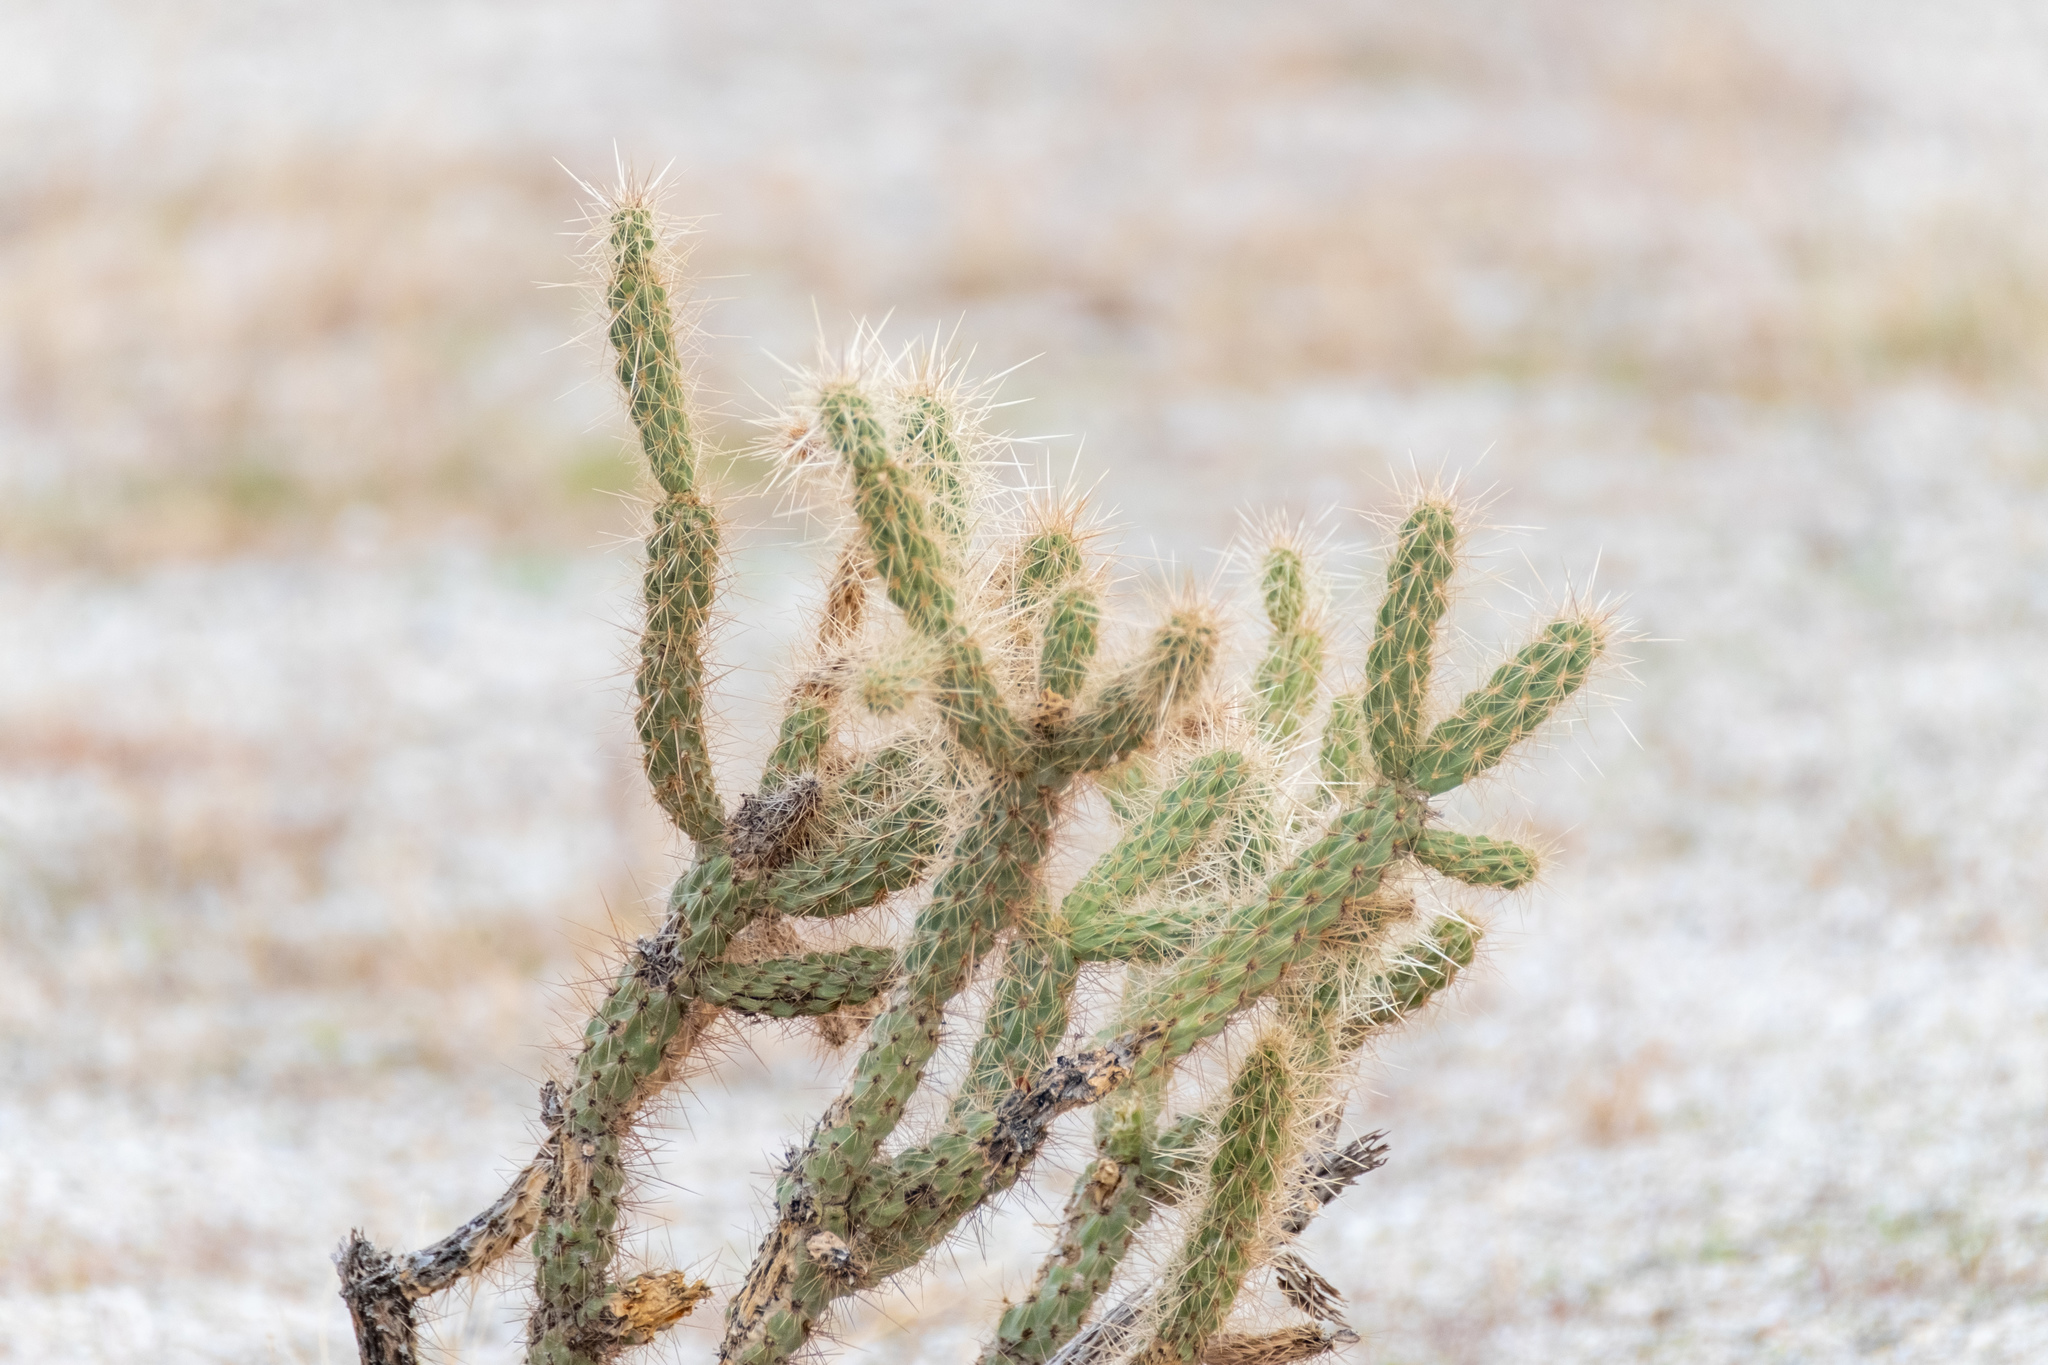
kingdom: Plantae
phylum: Tracheophyta
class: Magnoliopsida
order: Caryophyllales
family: Cactaceae
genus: Cylindropuntia
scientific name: Cylindropuntia ganderi
